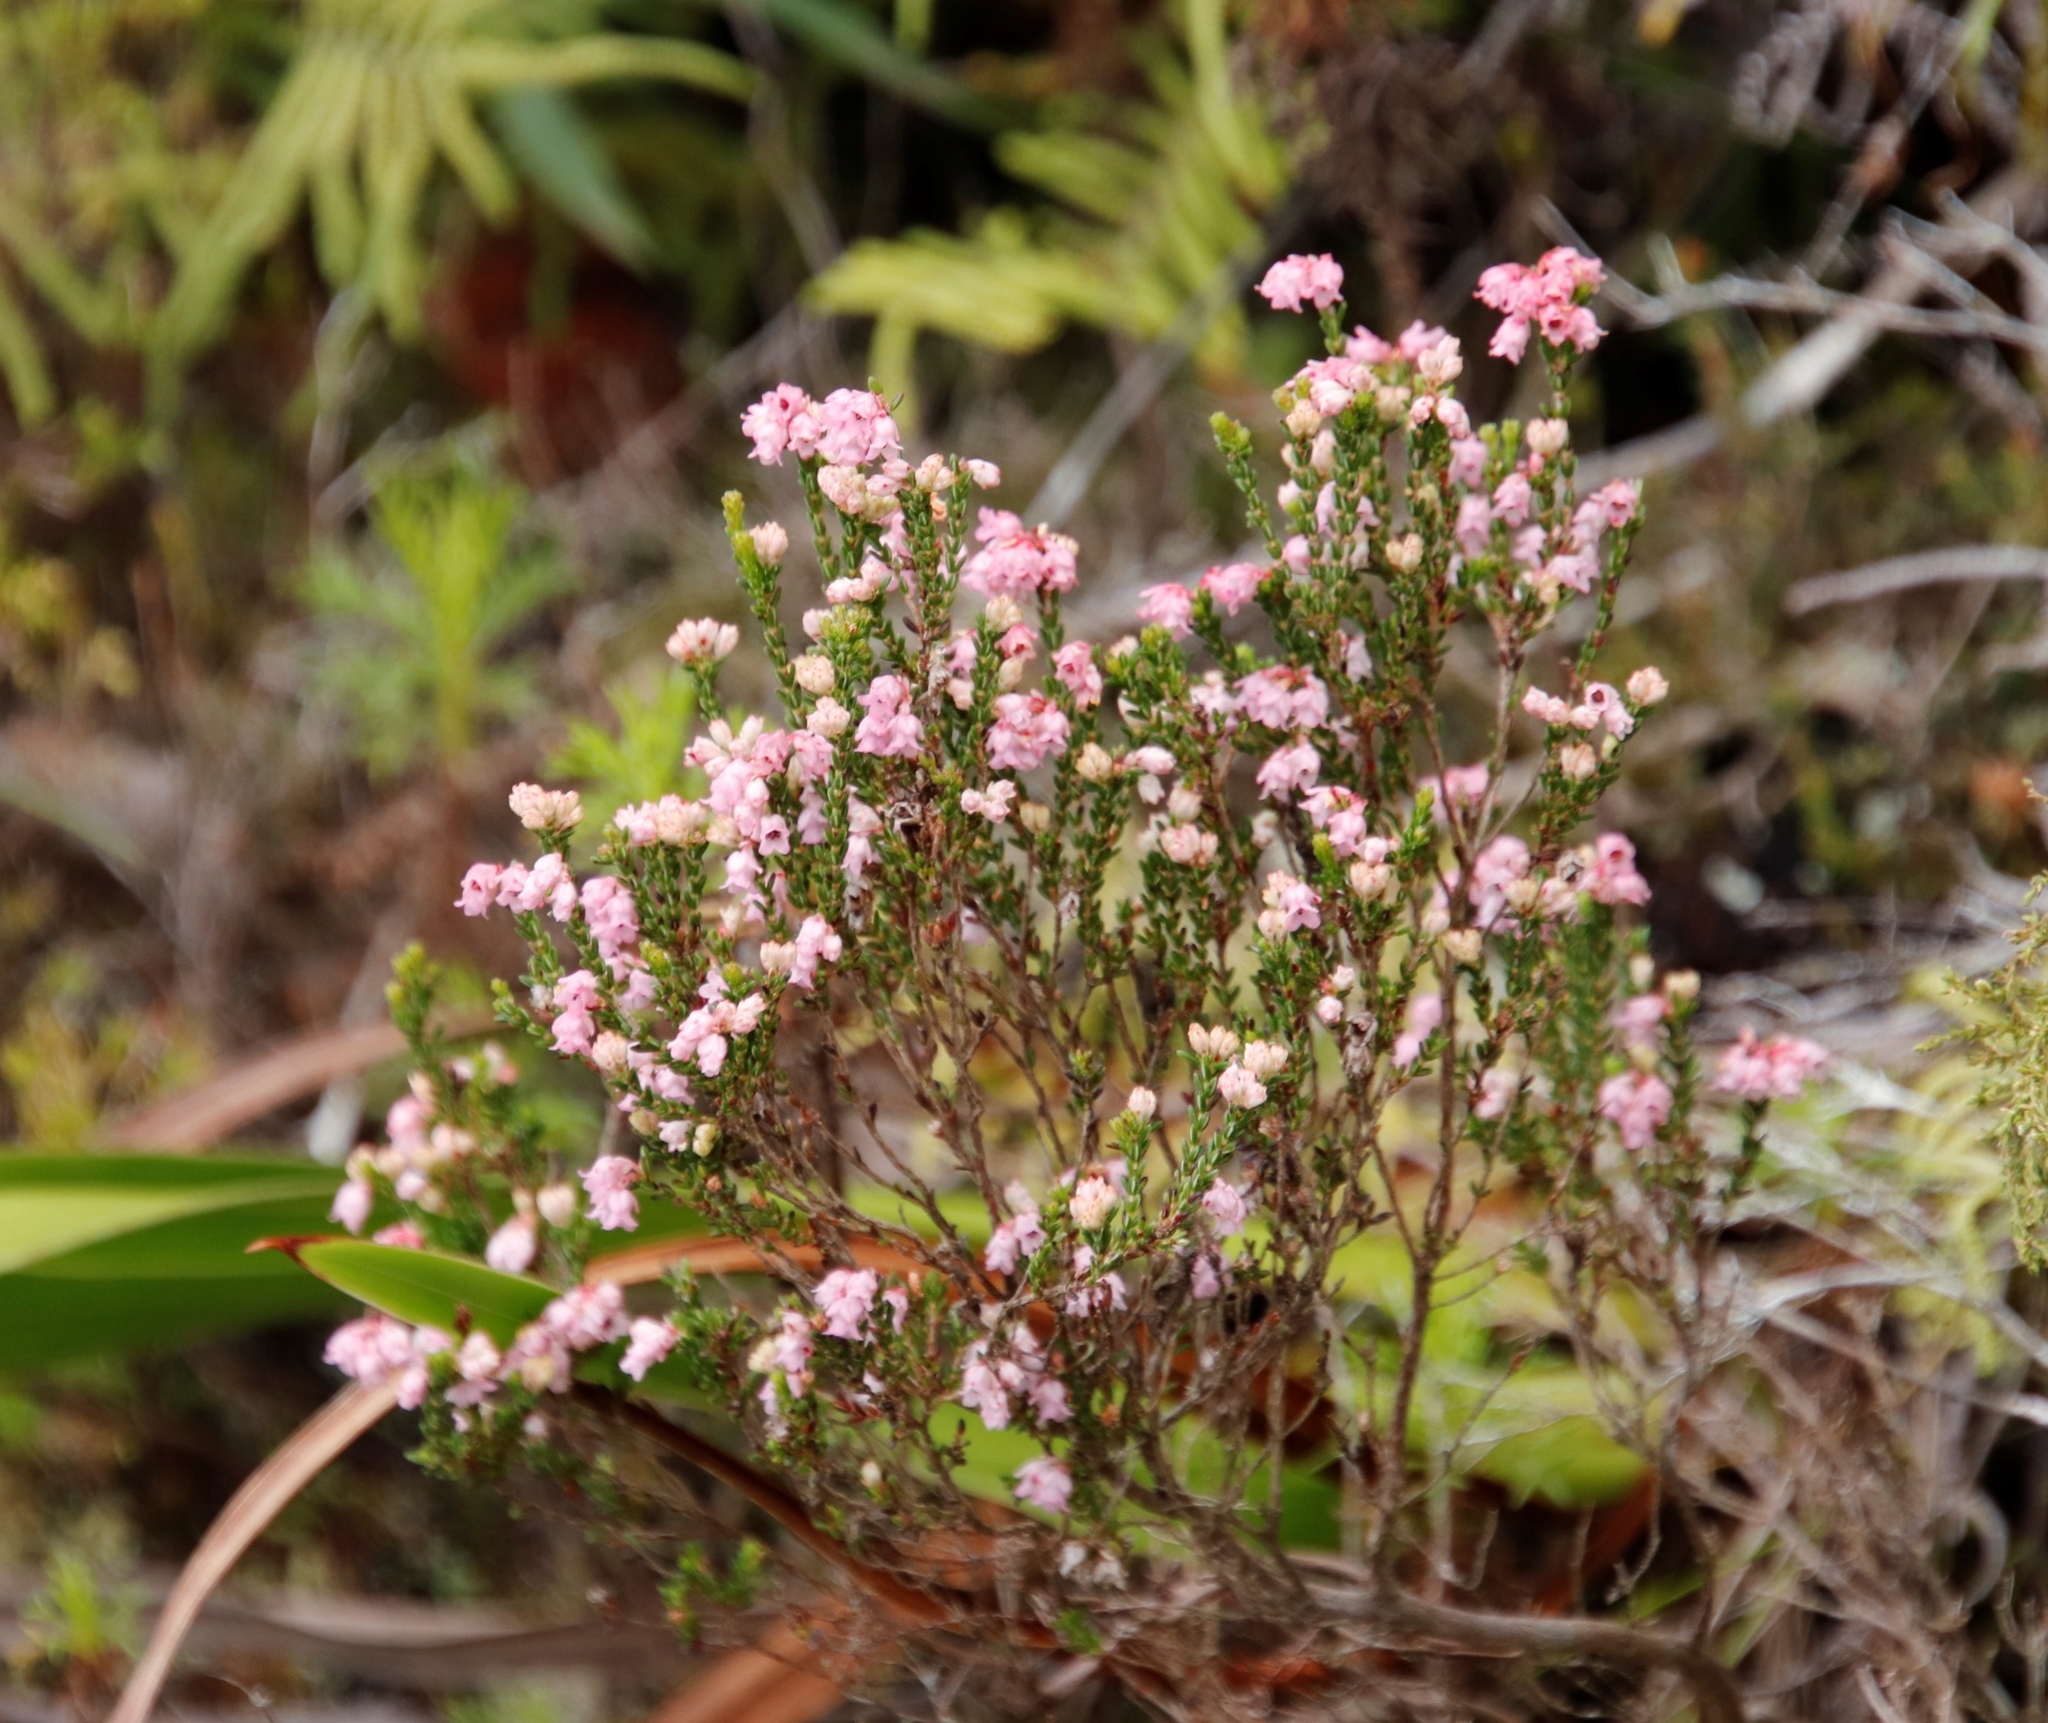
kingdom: Plantae
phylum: Tracheophyta
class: Magnoliopsida
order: Ericales
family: Ericaceae
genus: Erica
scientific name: Erica brevifolia
